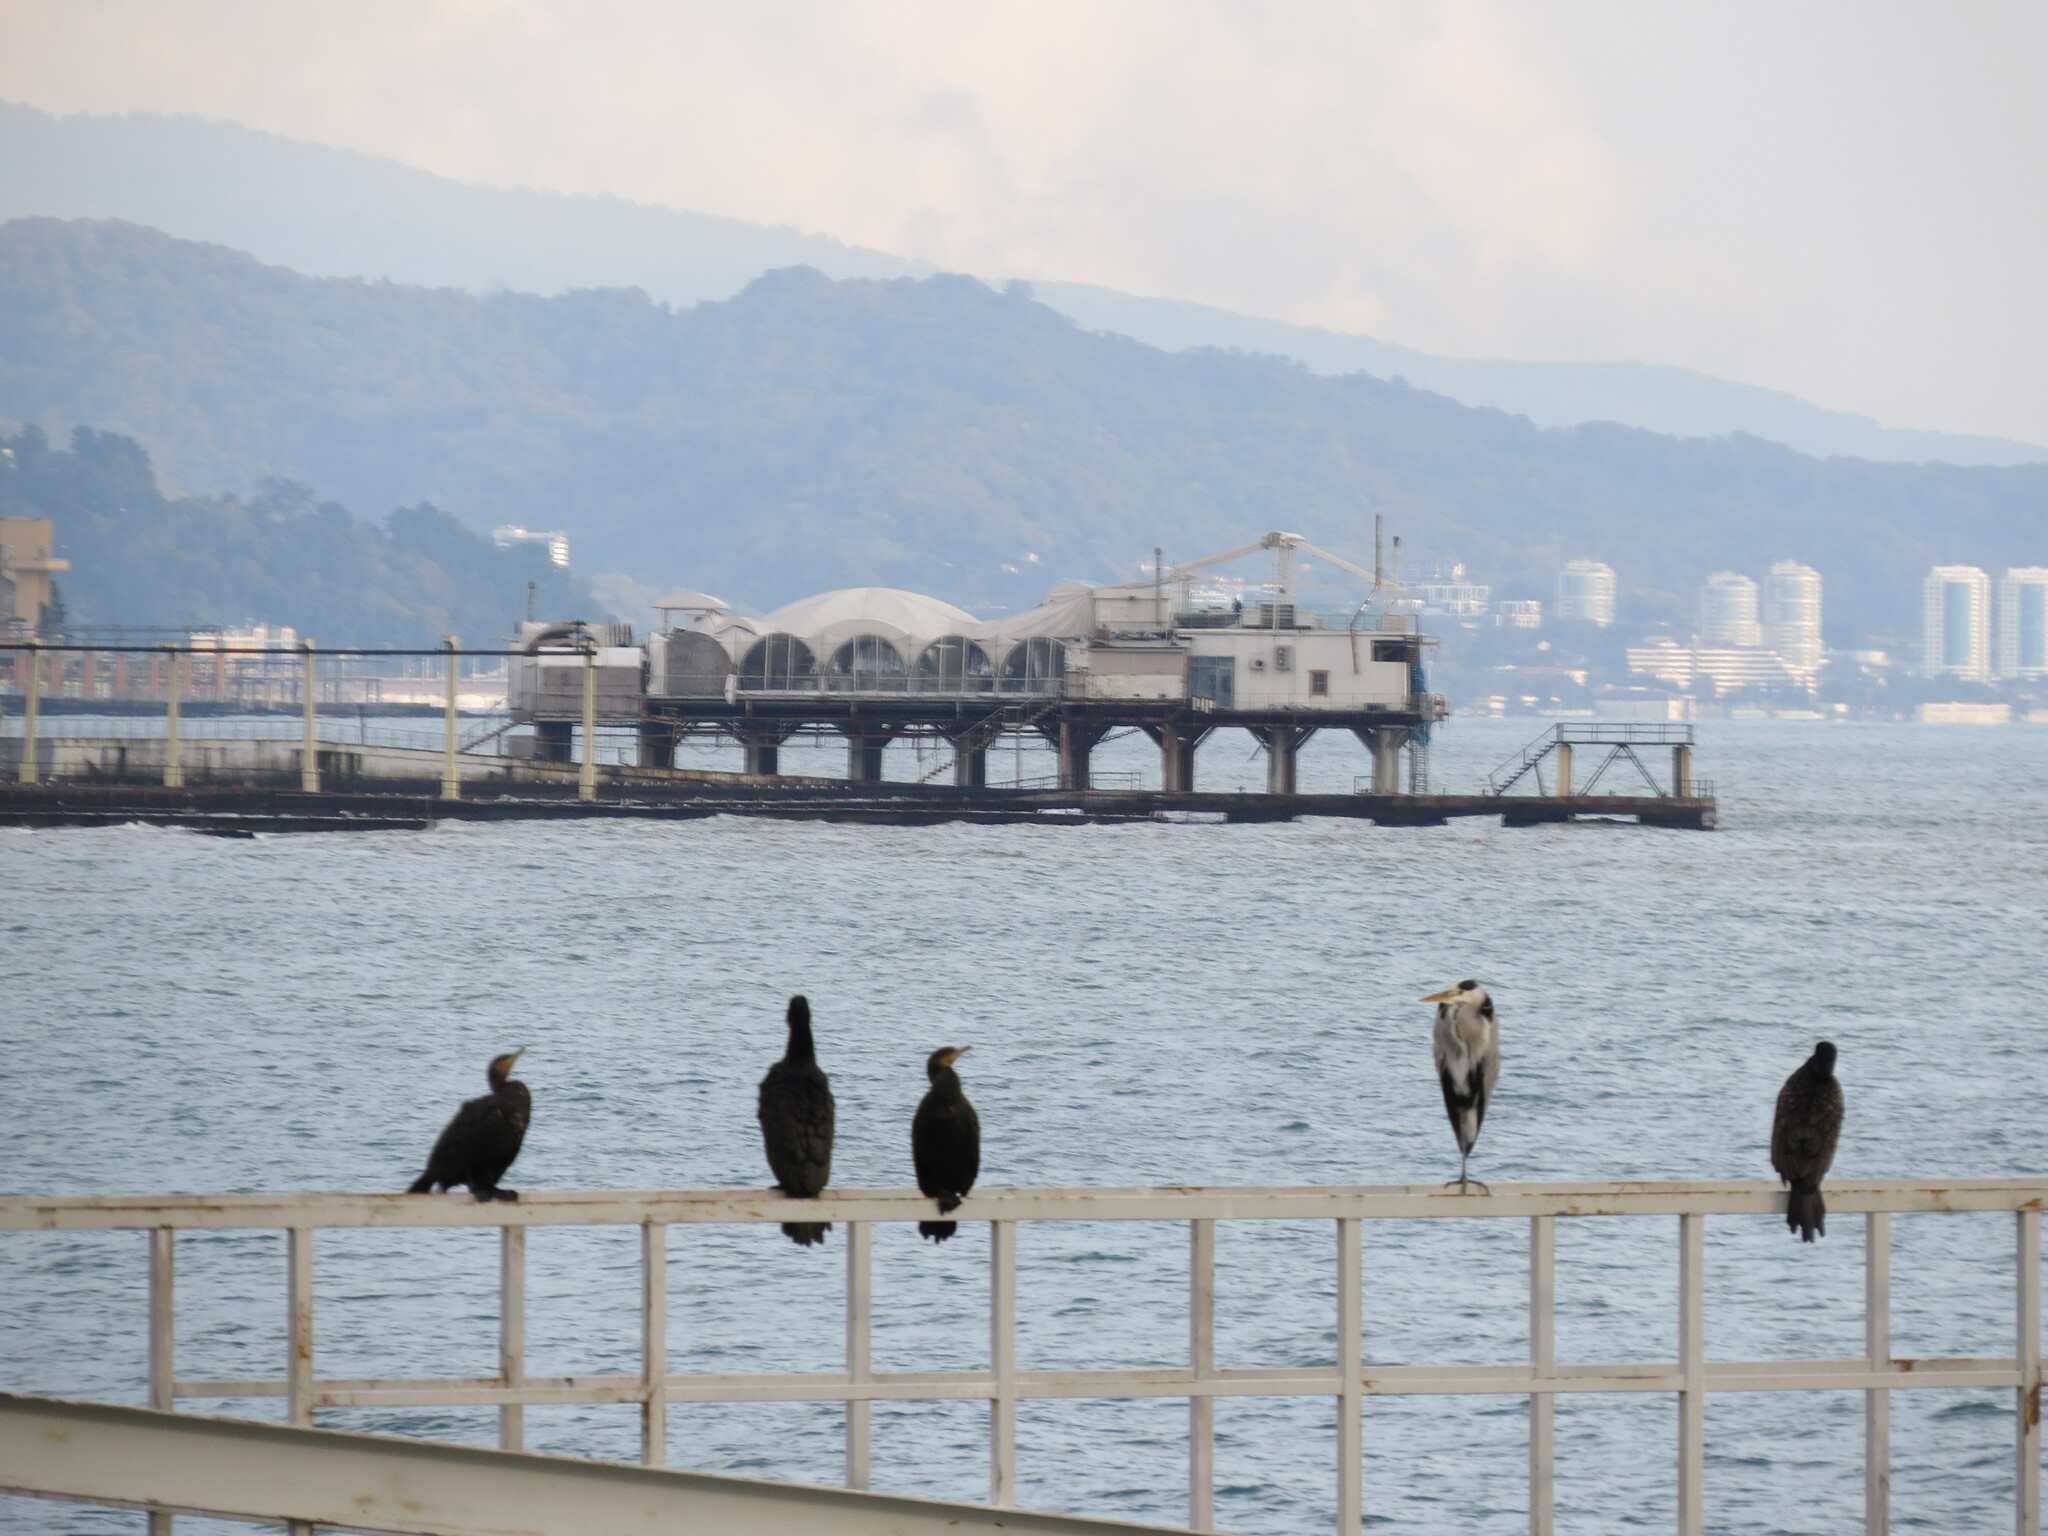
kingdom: Animalia
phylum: Chordata
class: Aves
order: Suliformes
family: Phalacrocoracidae
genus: Phalacrocorax
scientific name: Phalacrocorax carbo
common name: Great cormorant
